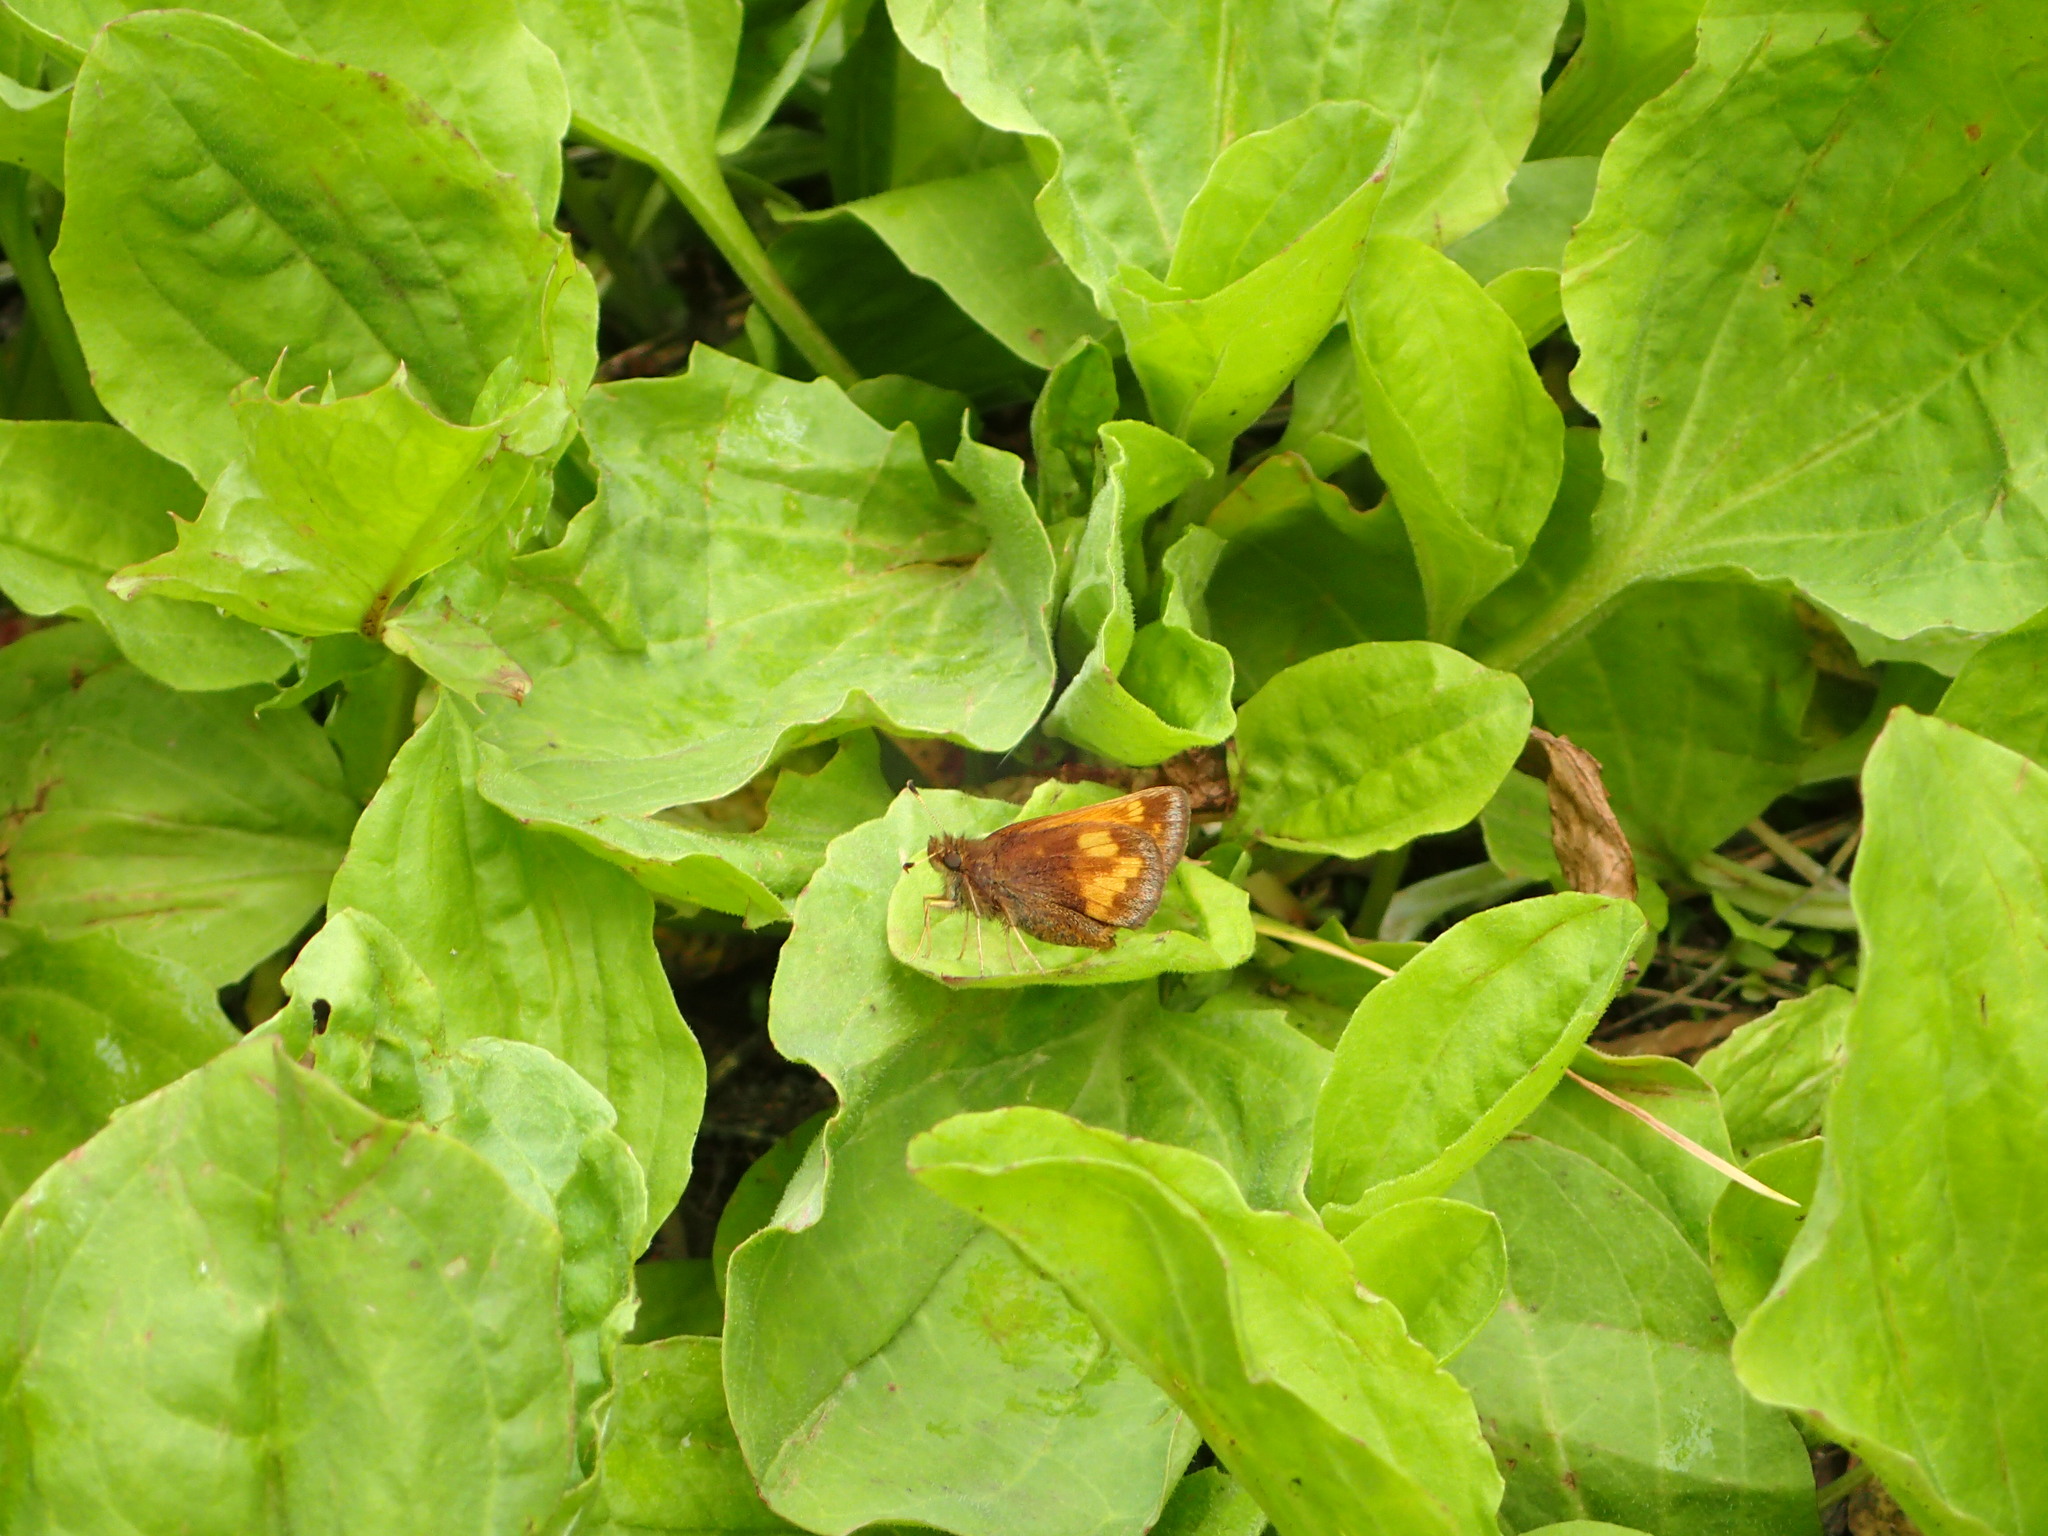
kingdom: Animalia
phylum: Arthropoda
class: Insecta
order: Lepidoptera
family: Hesperiidae
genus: Lon
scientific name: Lon hobomok
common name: Hobomok skipper
